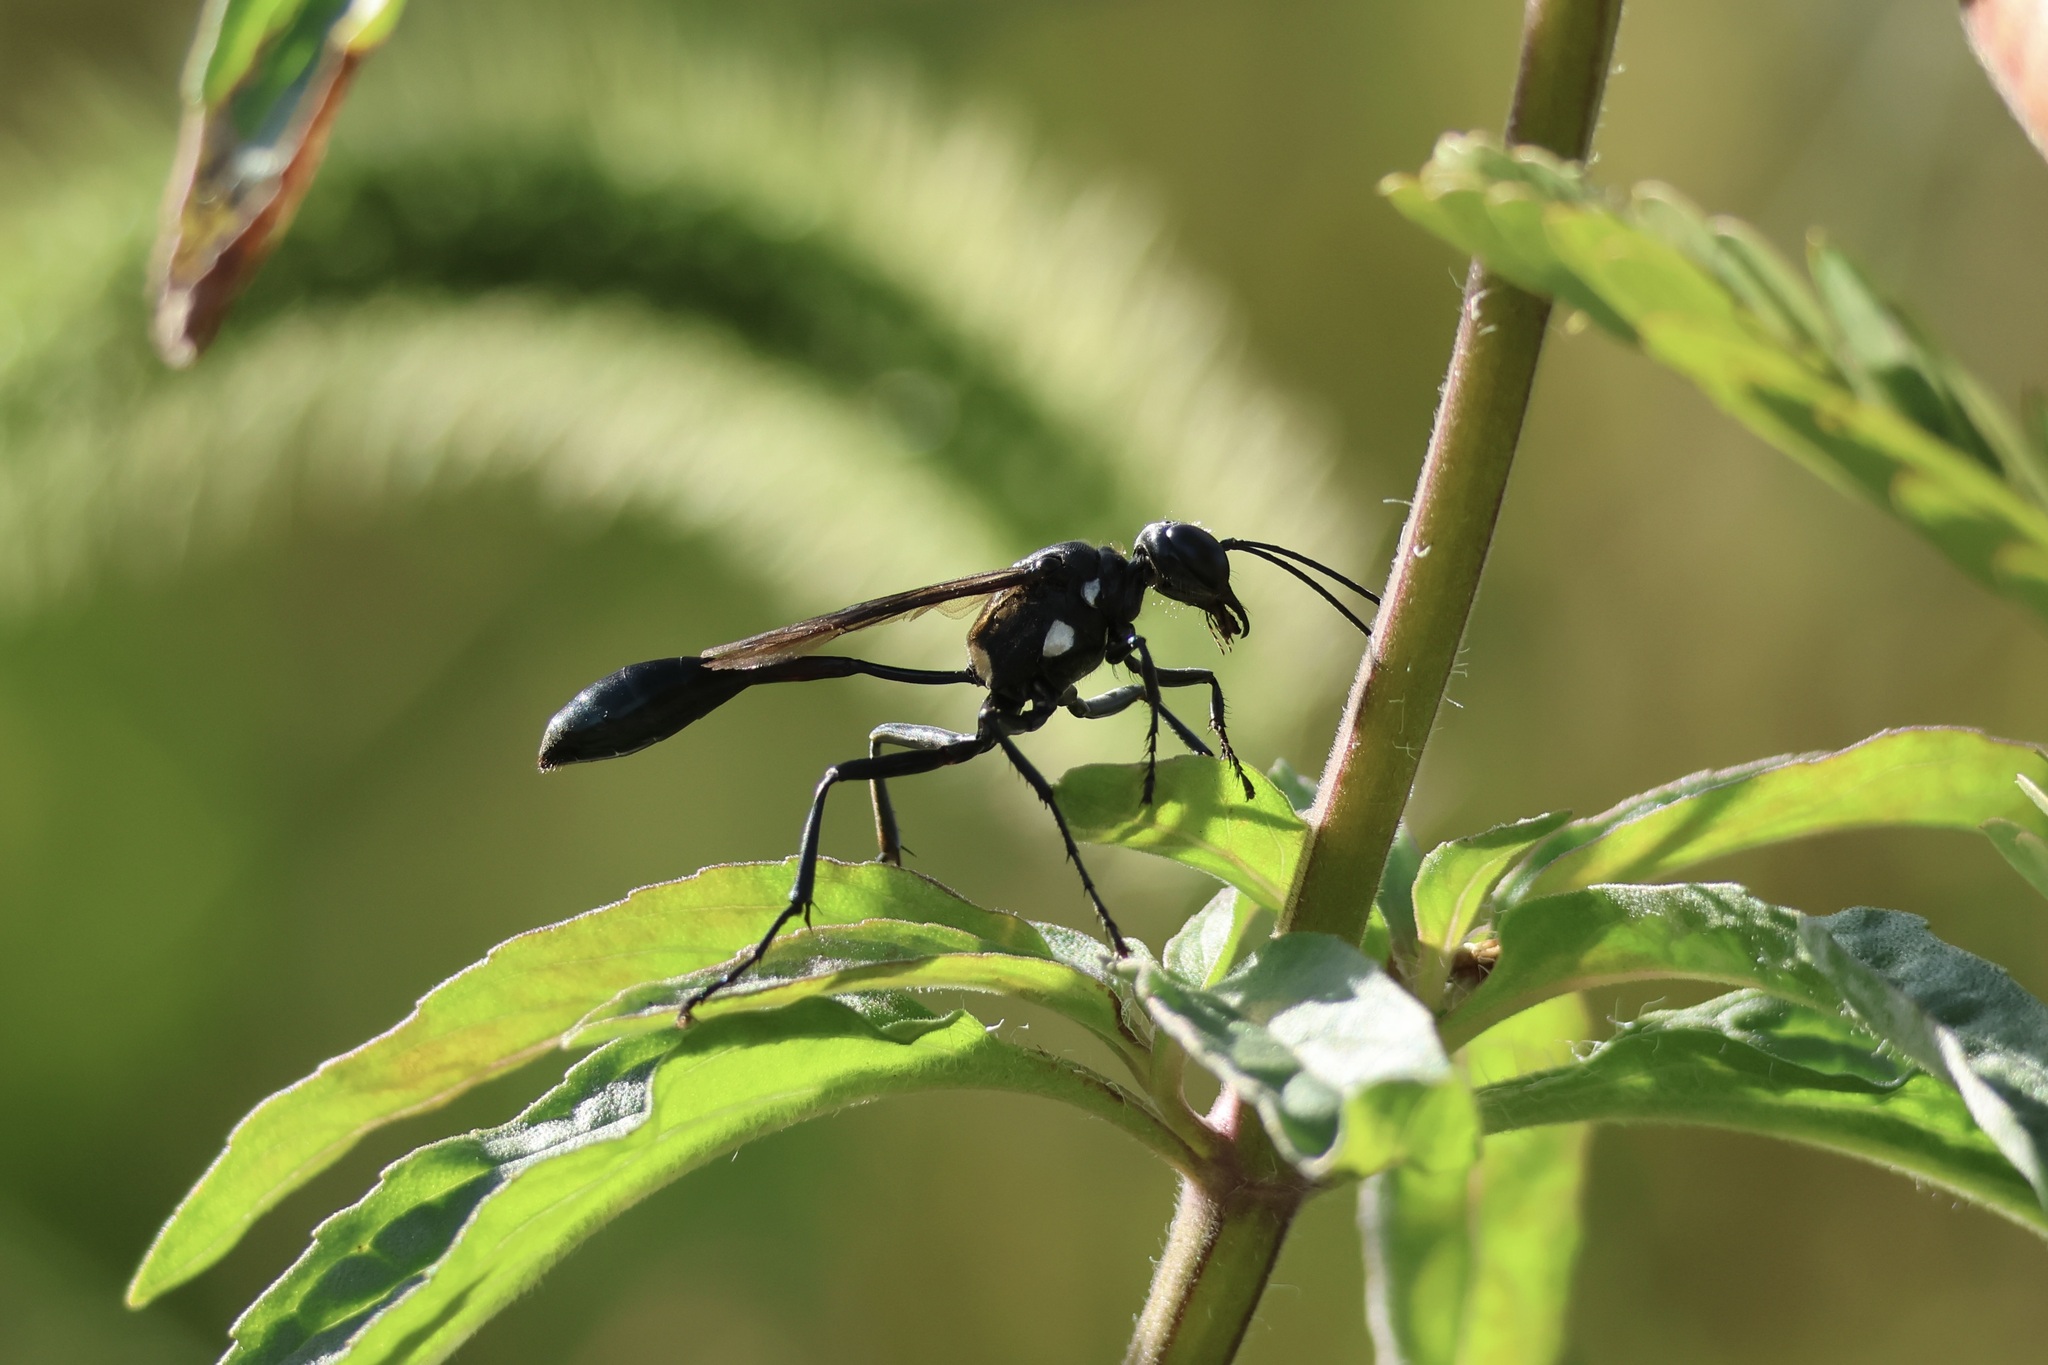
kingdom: Animalia
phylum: Arthropoda
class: Insecta
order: Hymenoptera
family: Sphecidae
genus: Eremnophila
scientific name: Eremnophila aureonotata
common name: Gold-marked thread-waisted wasp
